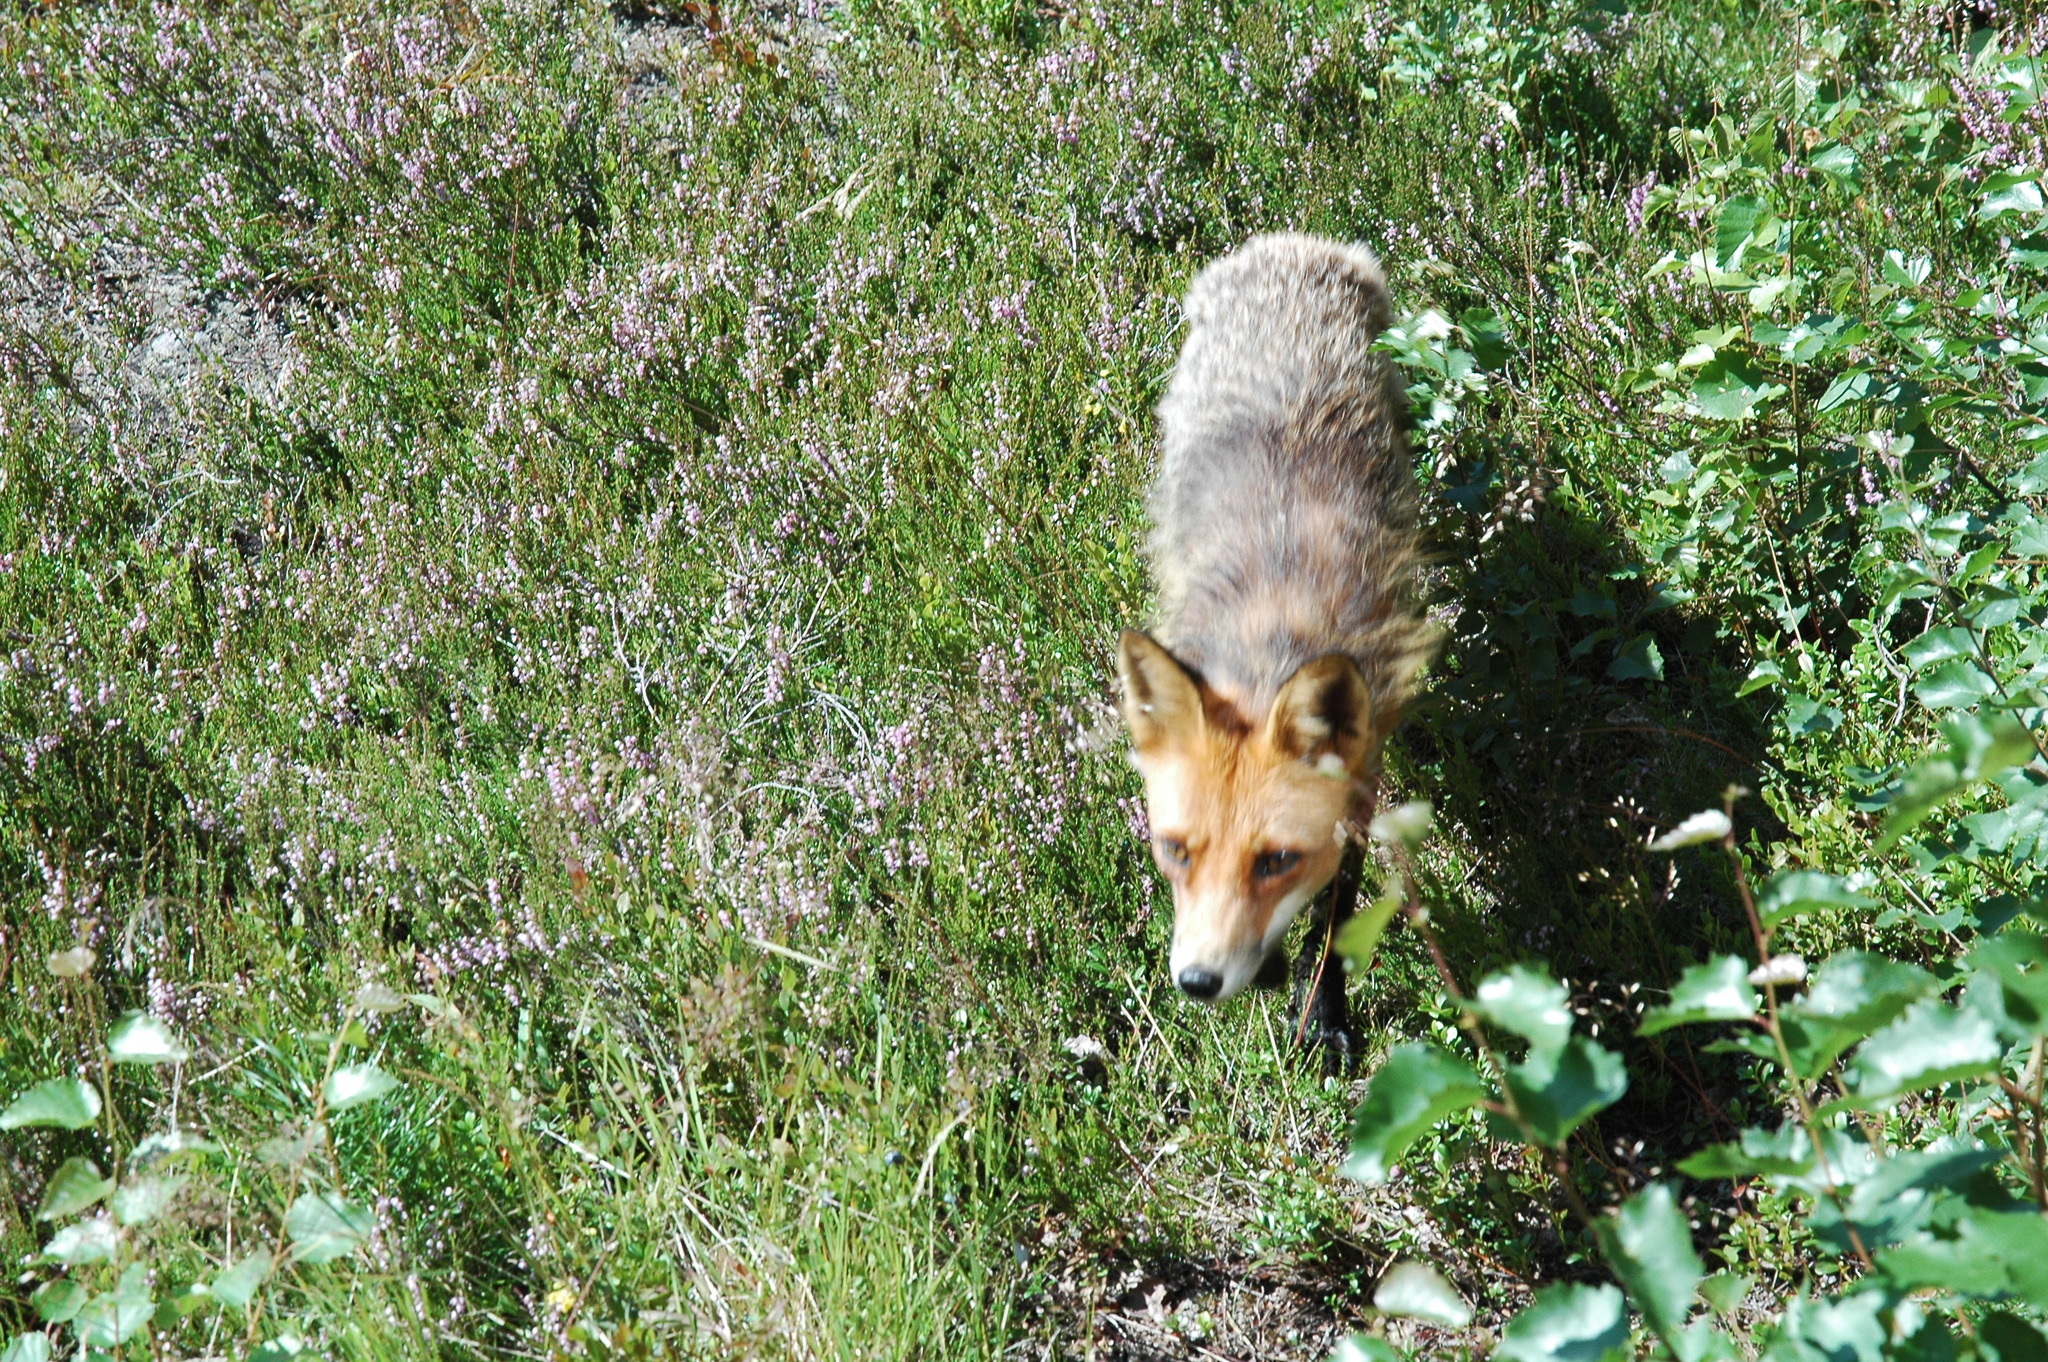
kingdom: Animalia
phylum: Chordata
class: Mammalia
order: Carnivora
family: Canidae
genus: Vulpes
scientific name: Vulpes vulpes
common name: Red fox
